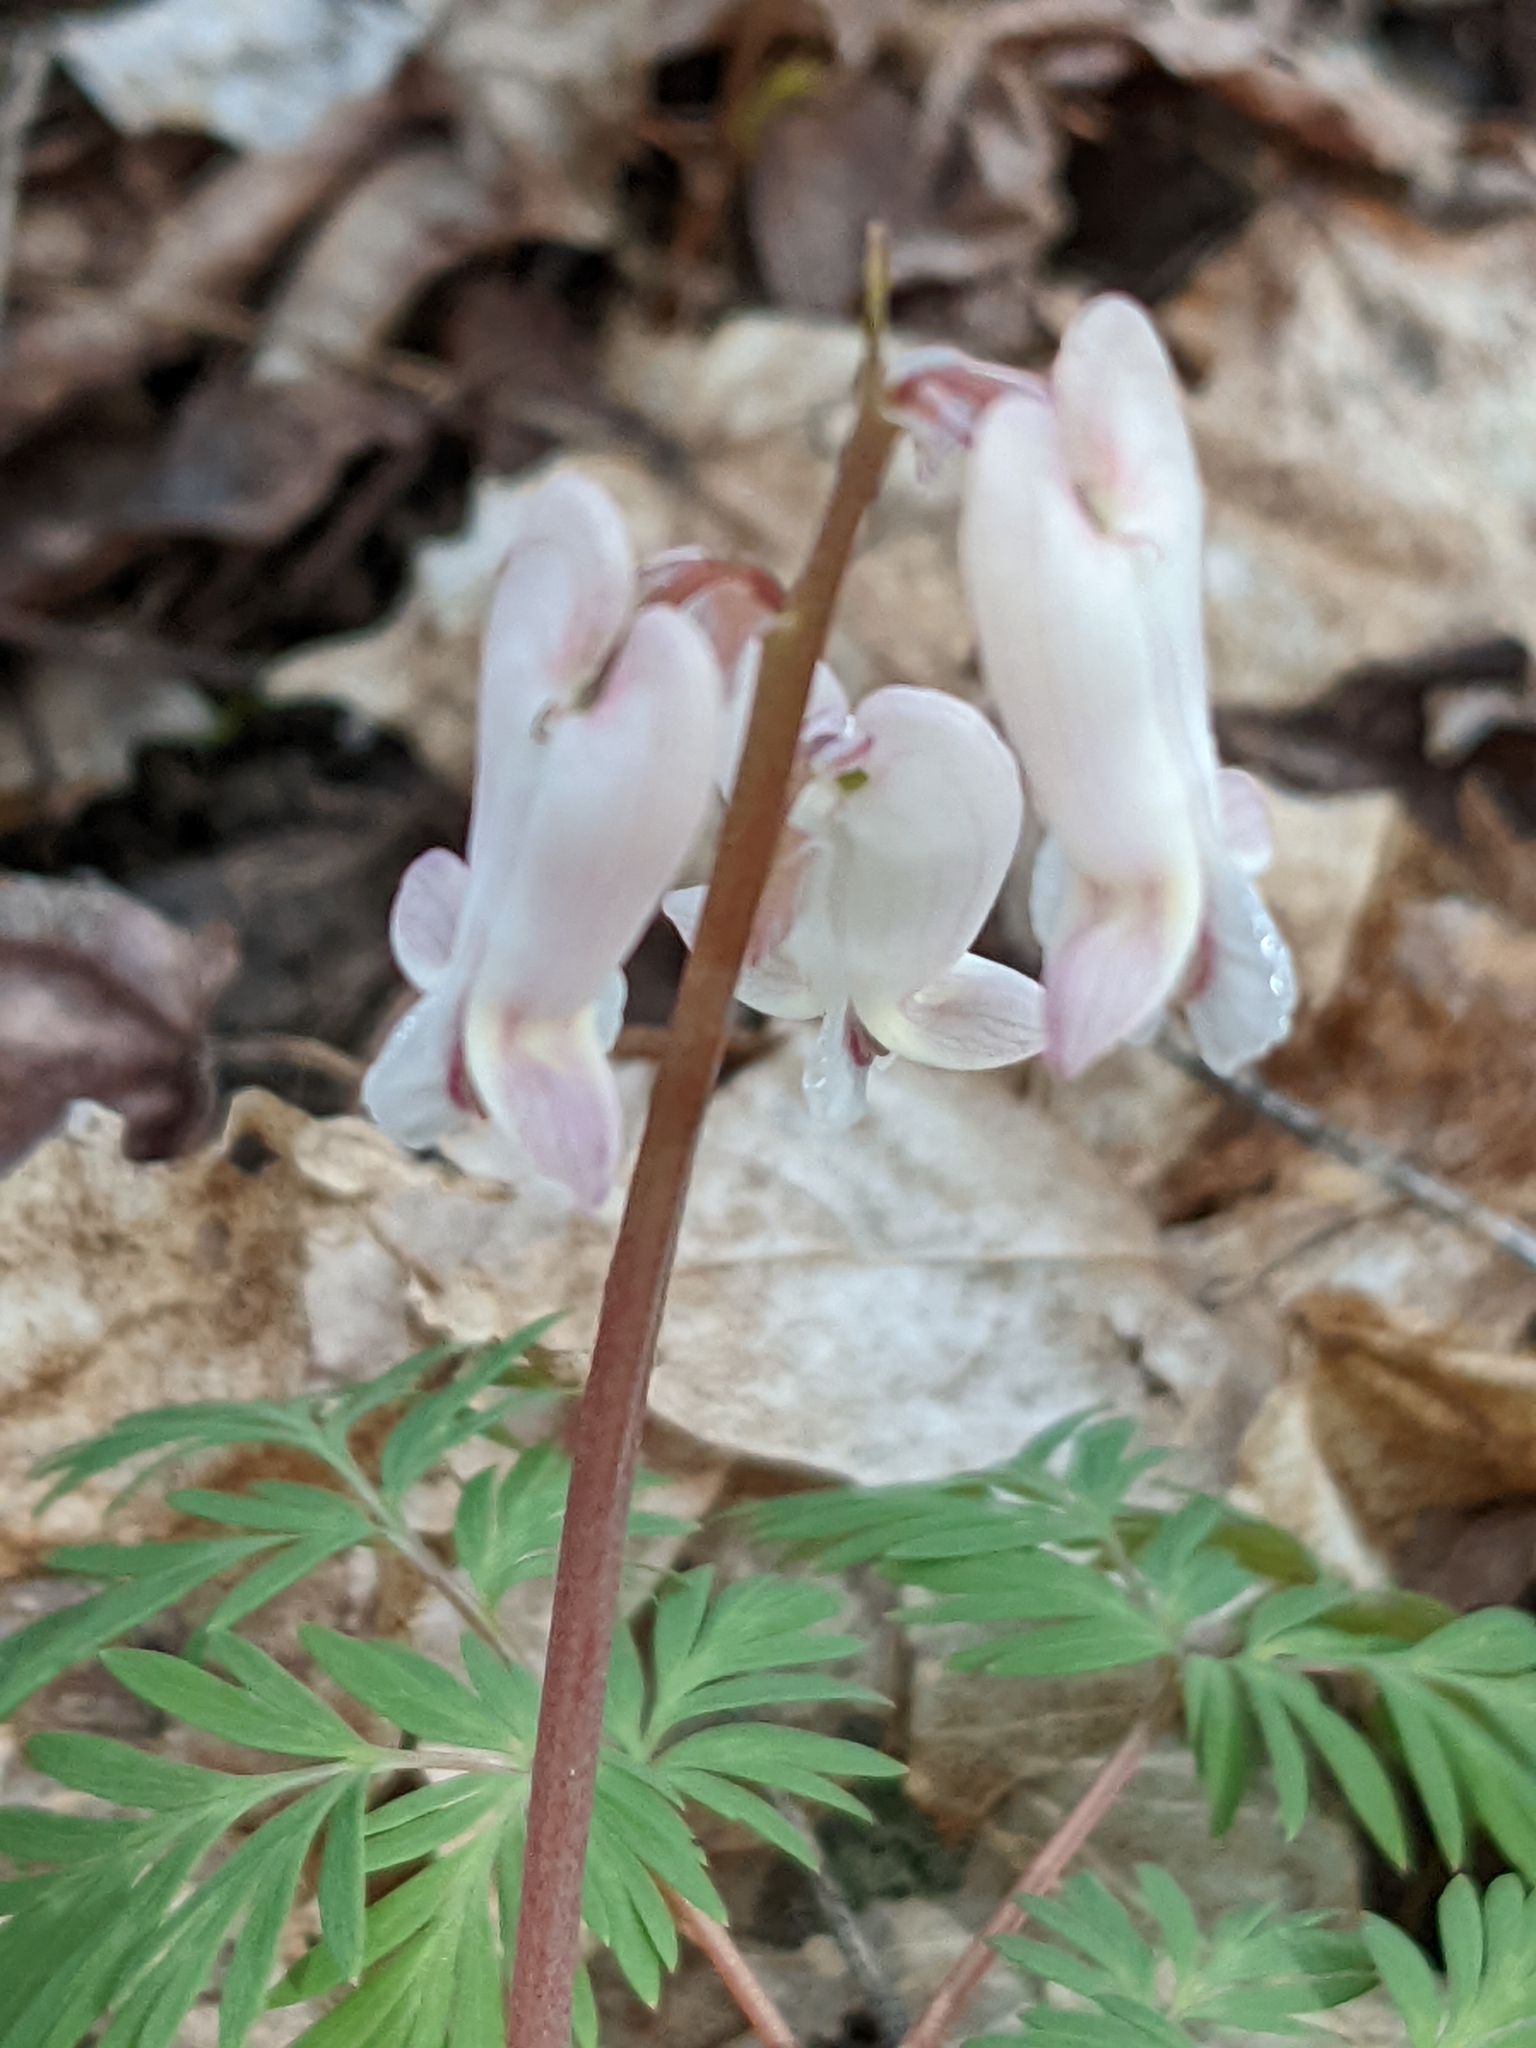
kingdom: Plantae
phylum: Tracheophyta
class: Magnoliopsida
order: Ranunculales
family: Papaveraceae
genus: Dicentra
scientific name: Dicentra canadensis
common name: Squirrel-corn
